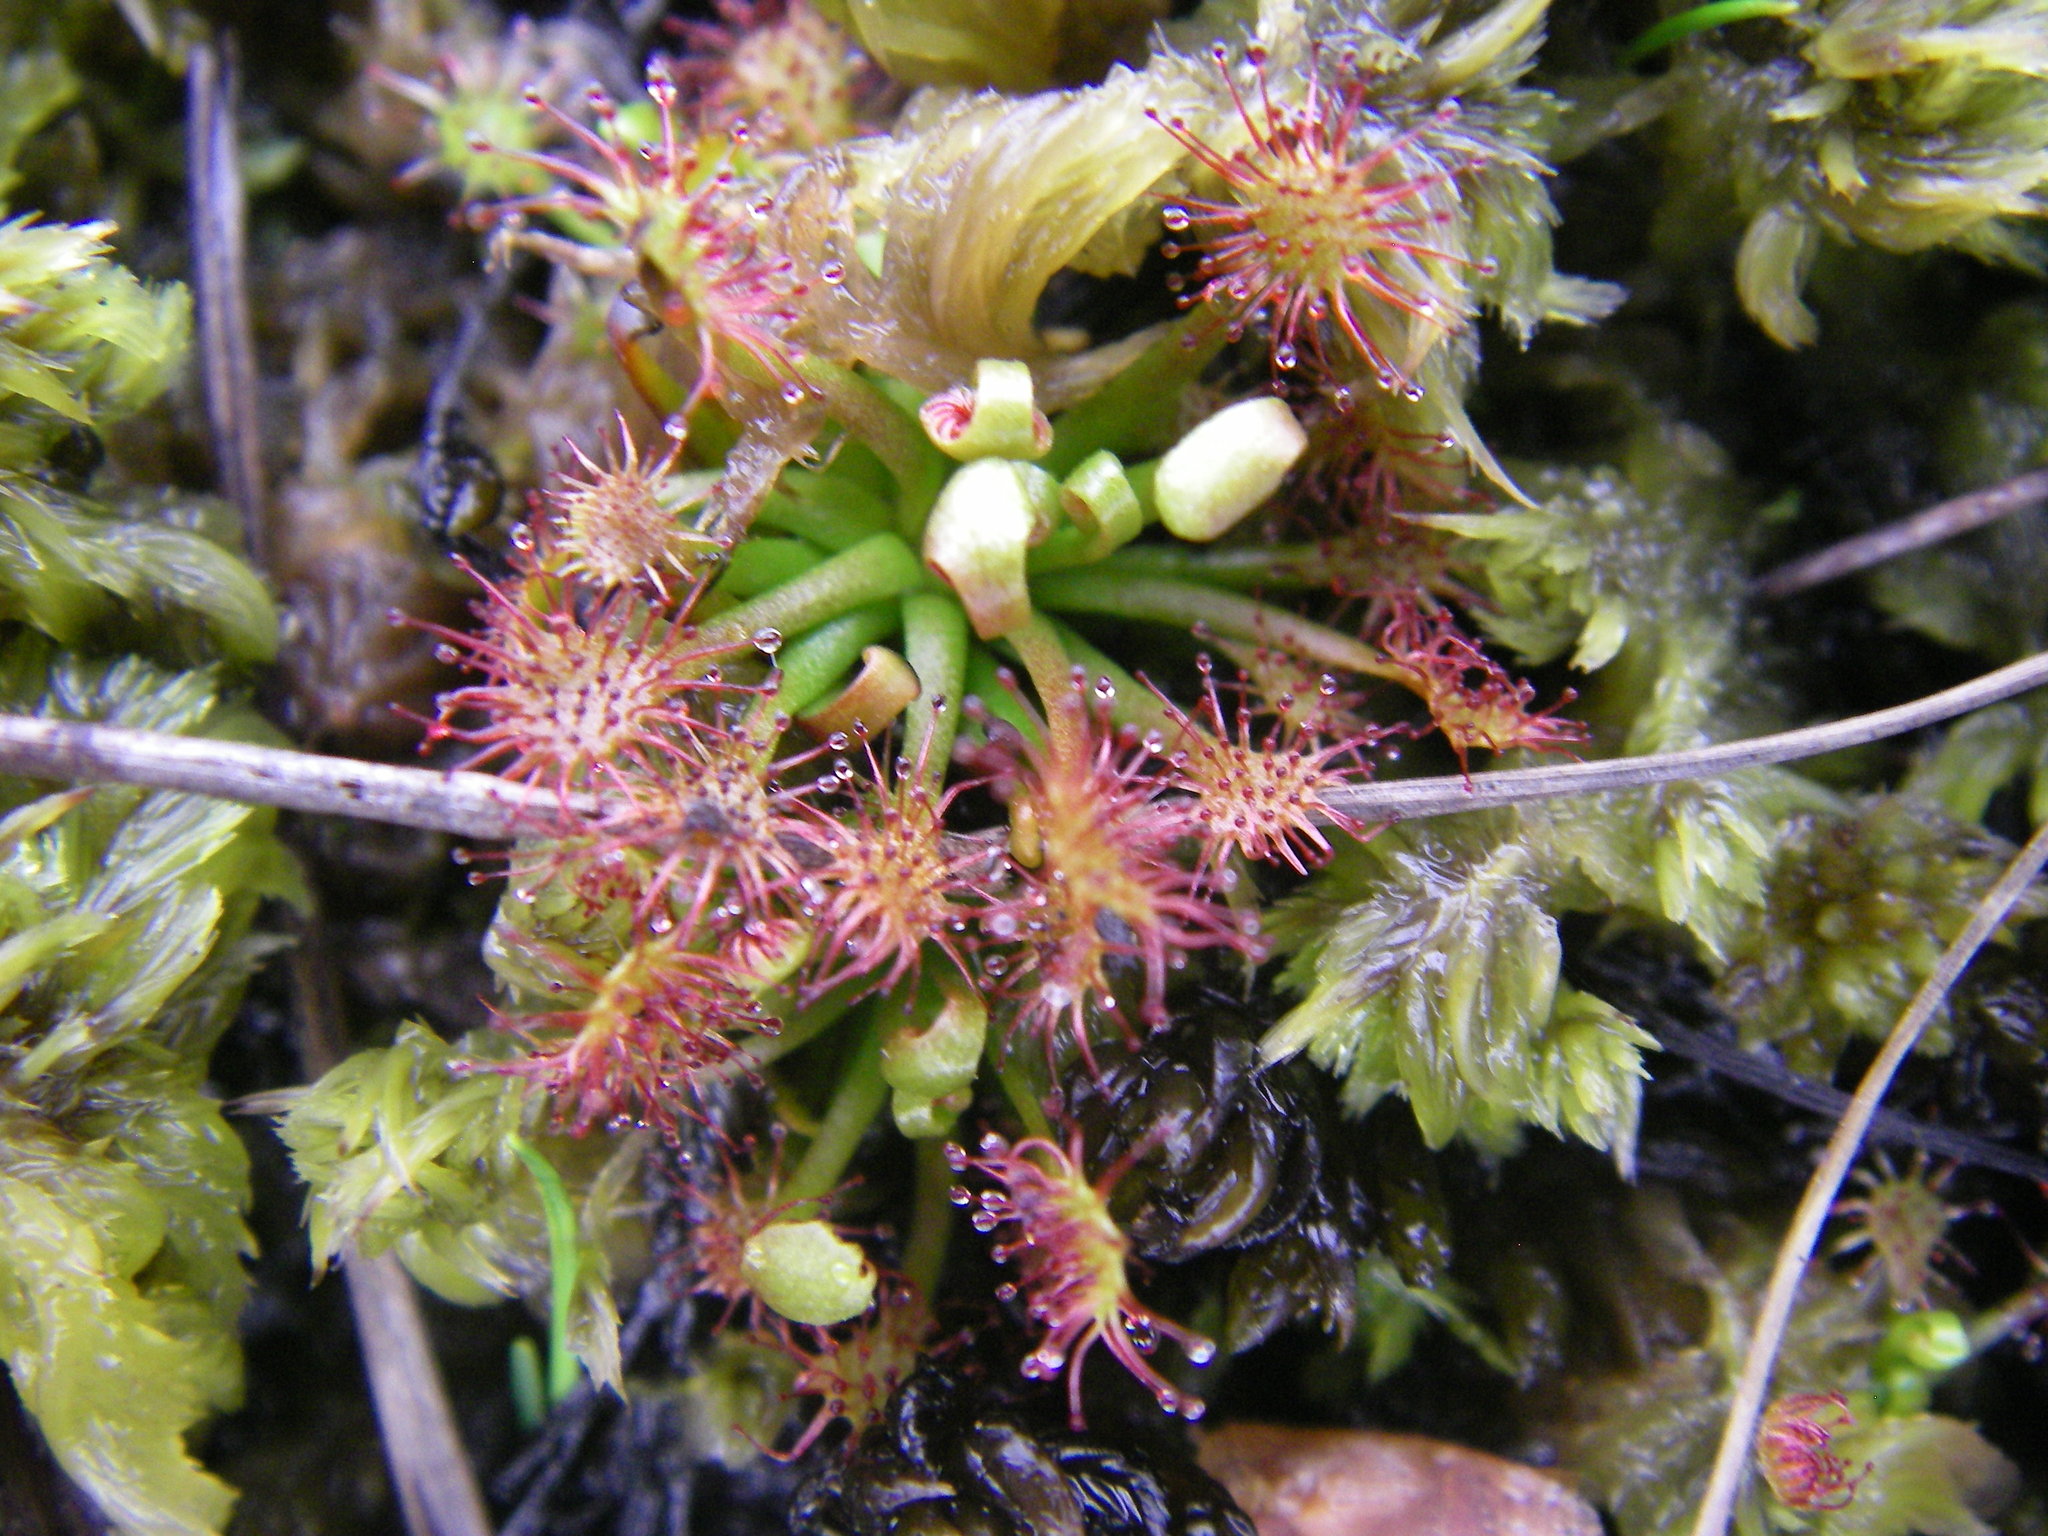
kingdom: Plantae
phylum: Tracheophyta
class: Magnoliopsida
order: Caryophyllales
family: Droseraceae
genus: Drosera
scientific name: Drosera intermedia
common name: Oblong-leaved sundew
